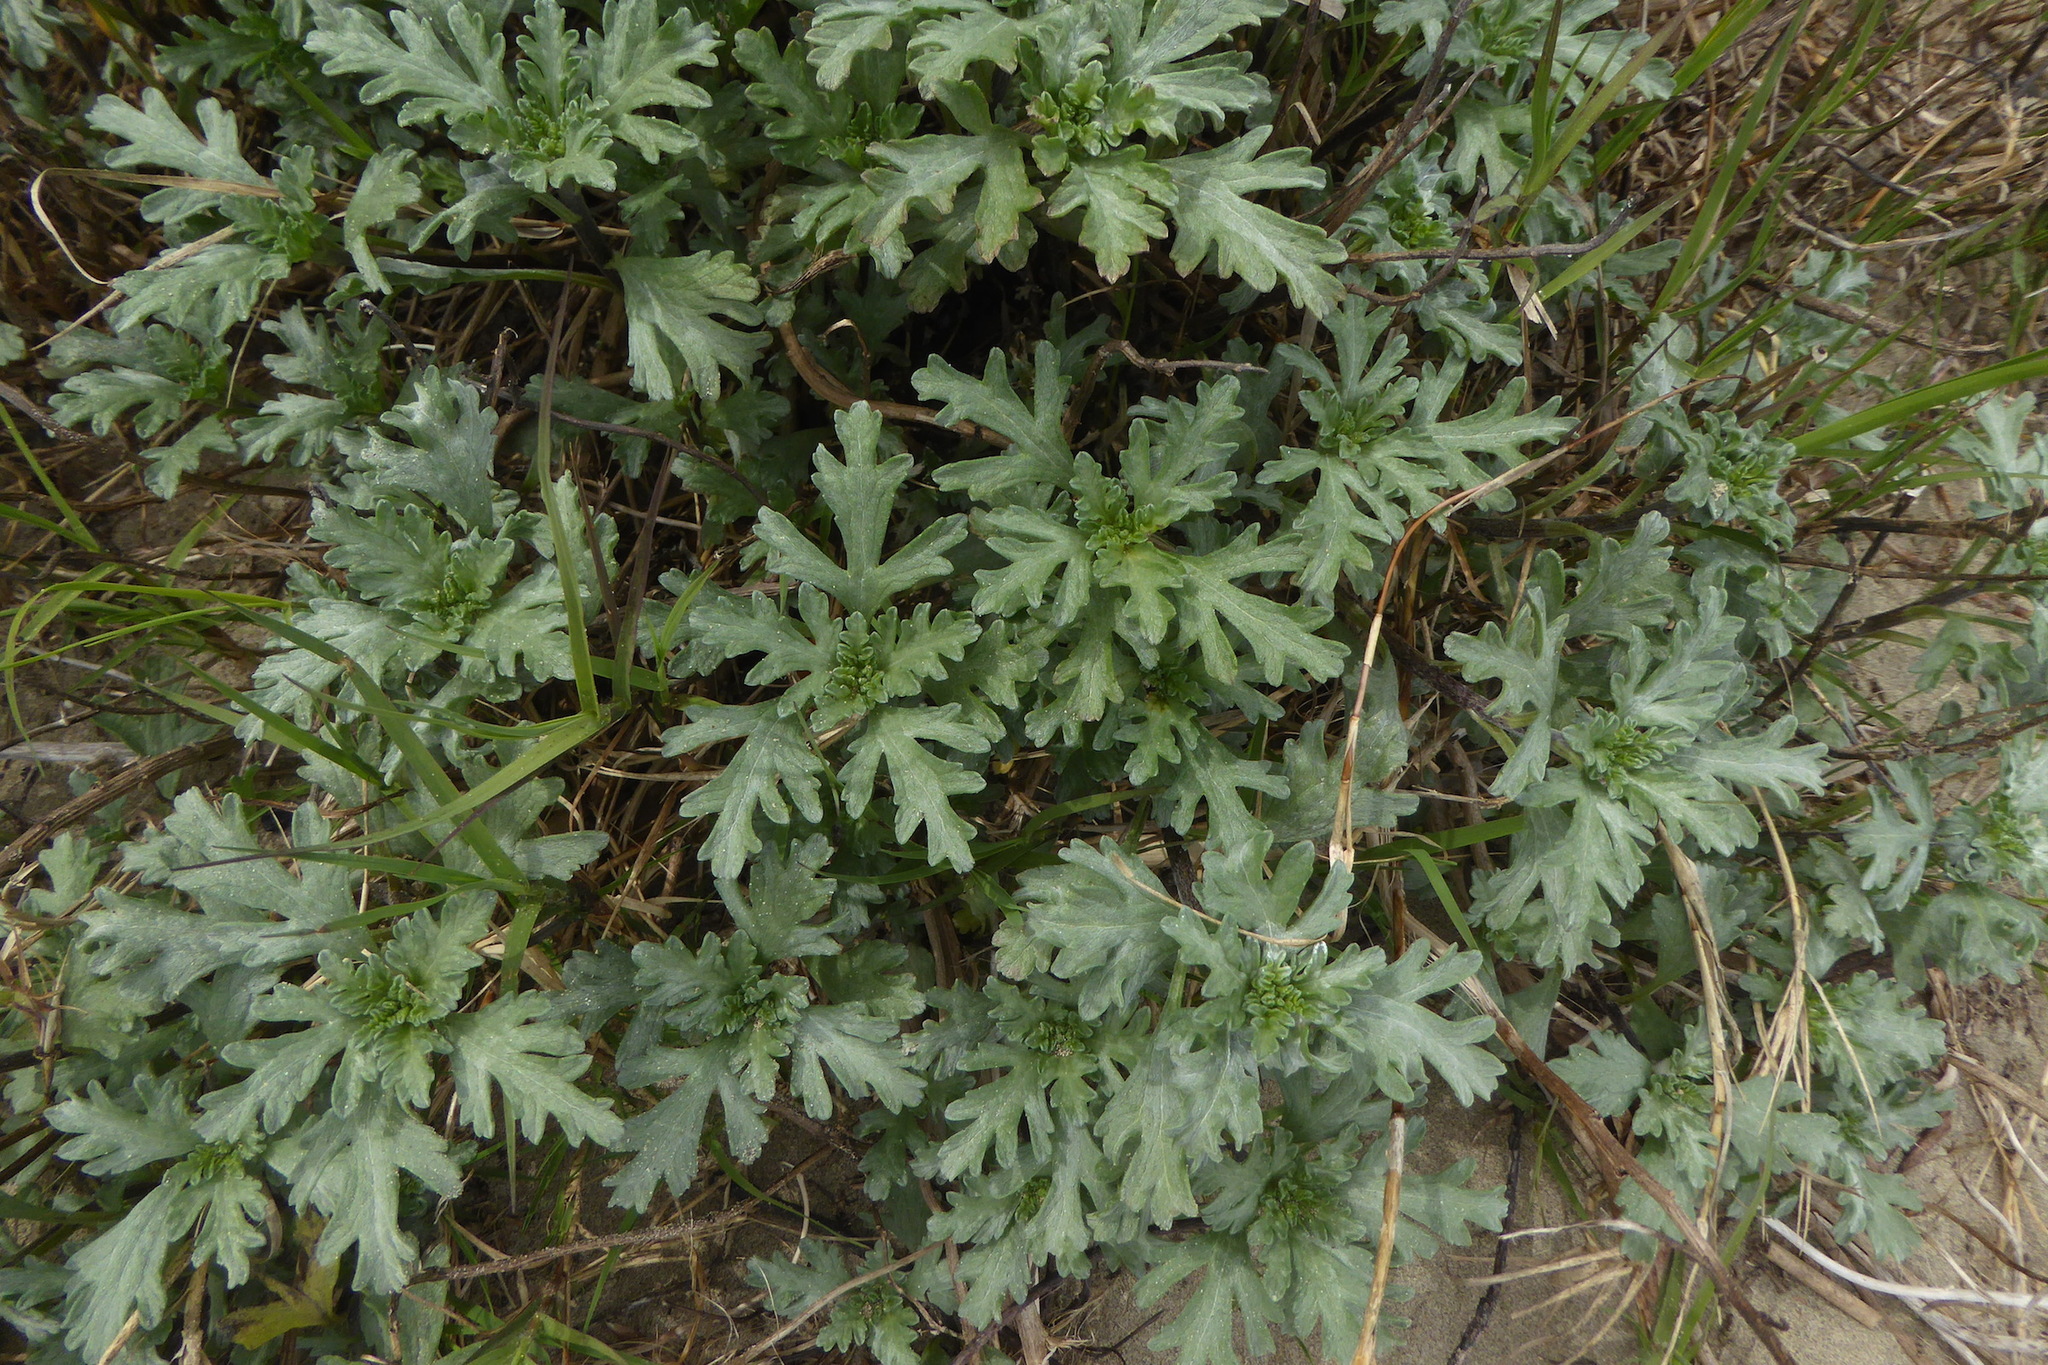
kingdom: Plantae
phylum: Tracheophyta
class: Magnoliopsida
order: Asterales
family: Asteraceae
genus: Ambrosia
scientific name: Ambrosia chamissonis
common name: Beachbur
